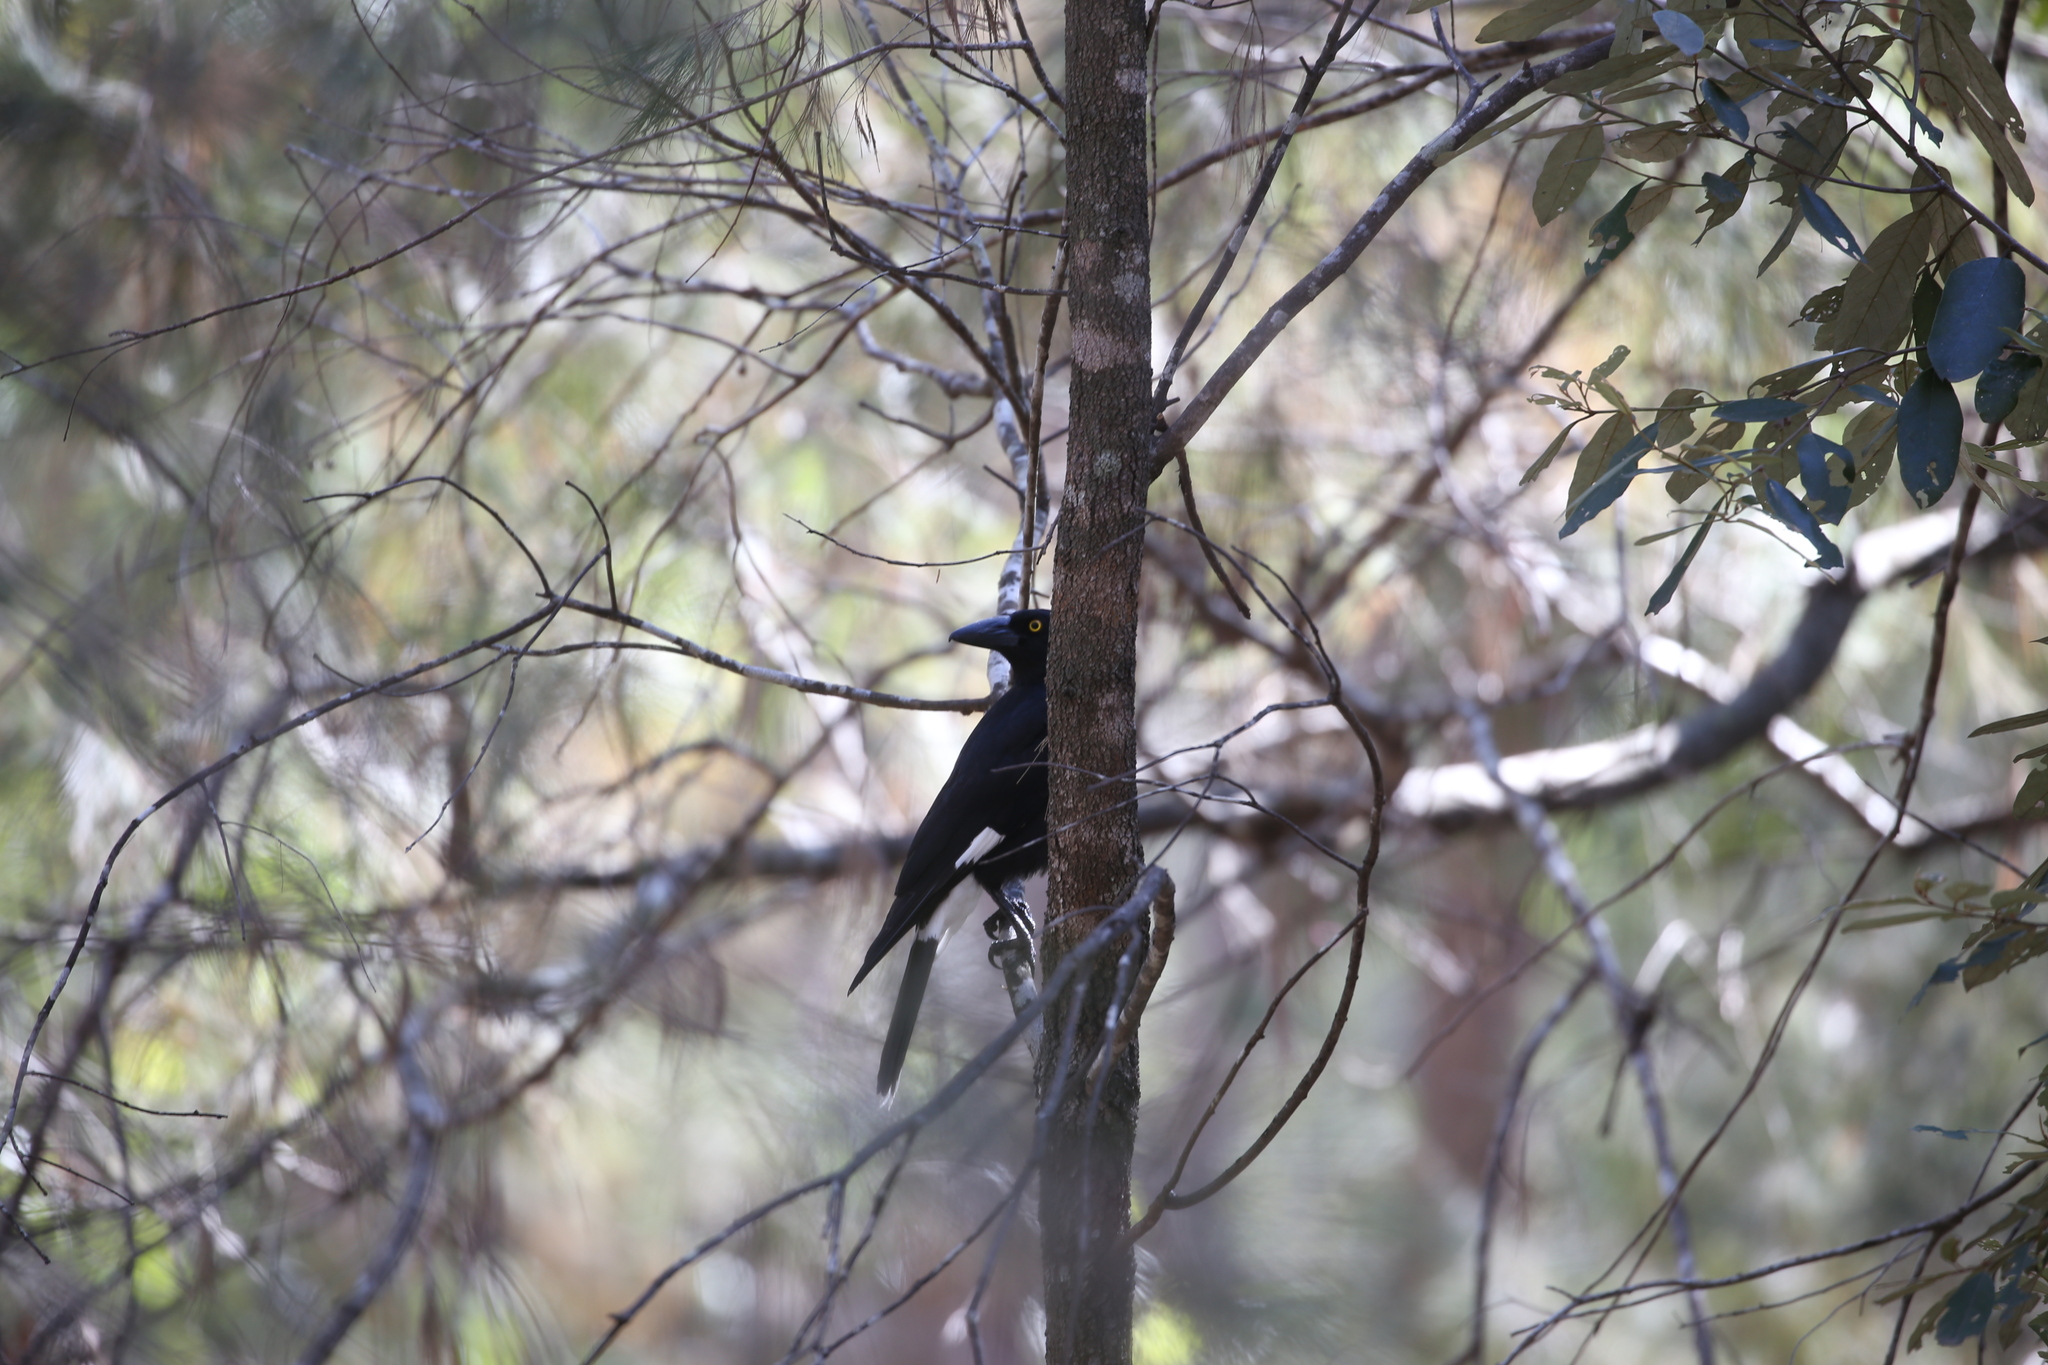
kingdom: Animalia
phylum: Chordata
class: Aves
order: Passeriformes
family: Cracticidae
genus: Strepera
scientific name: Strepera graculina
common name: Pied currawong
